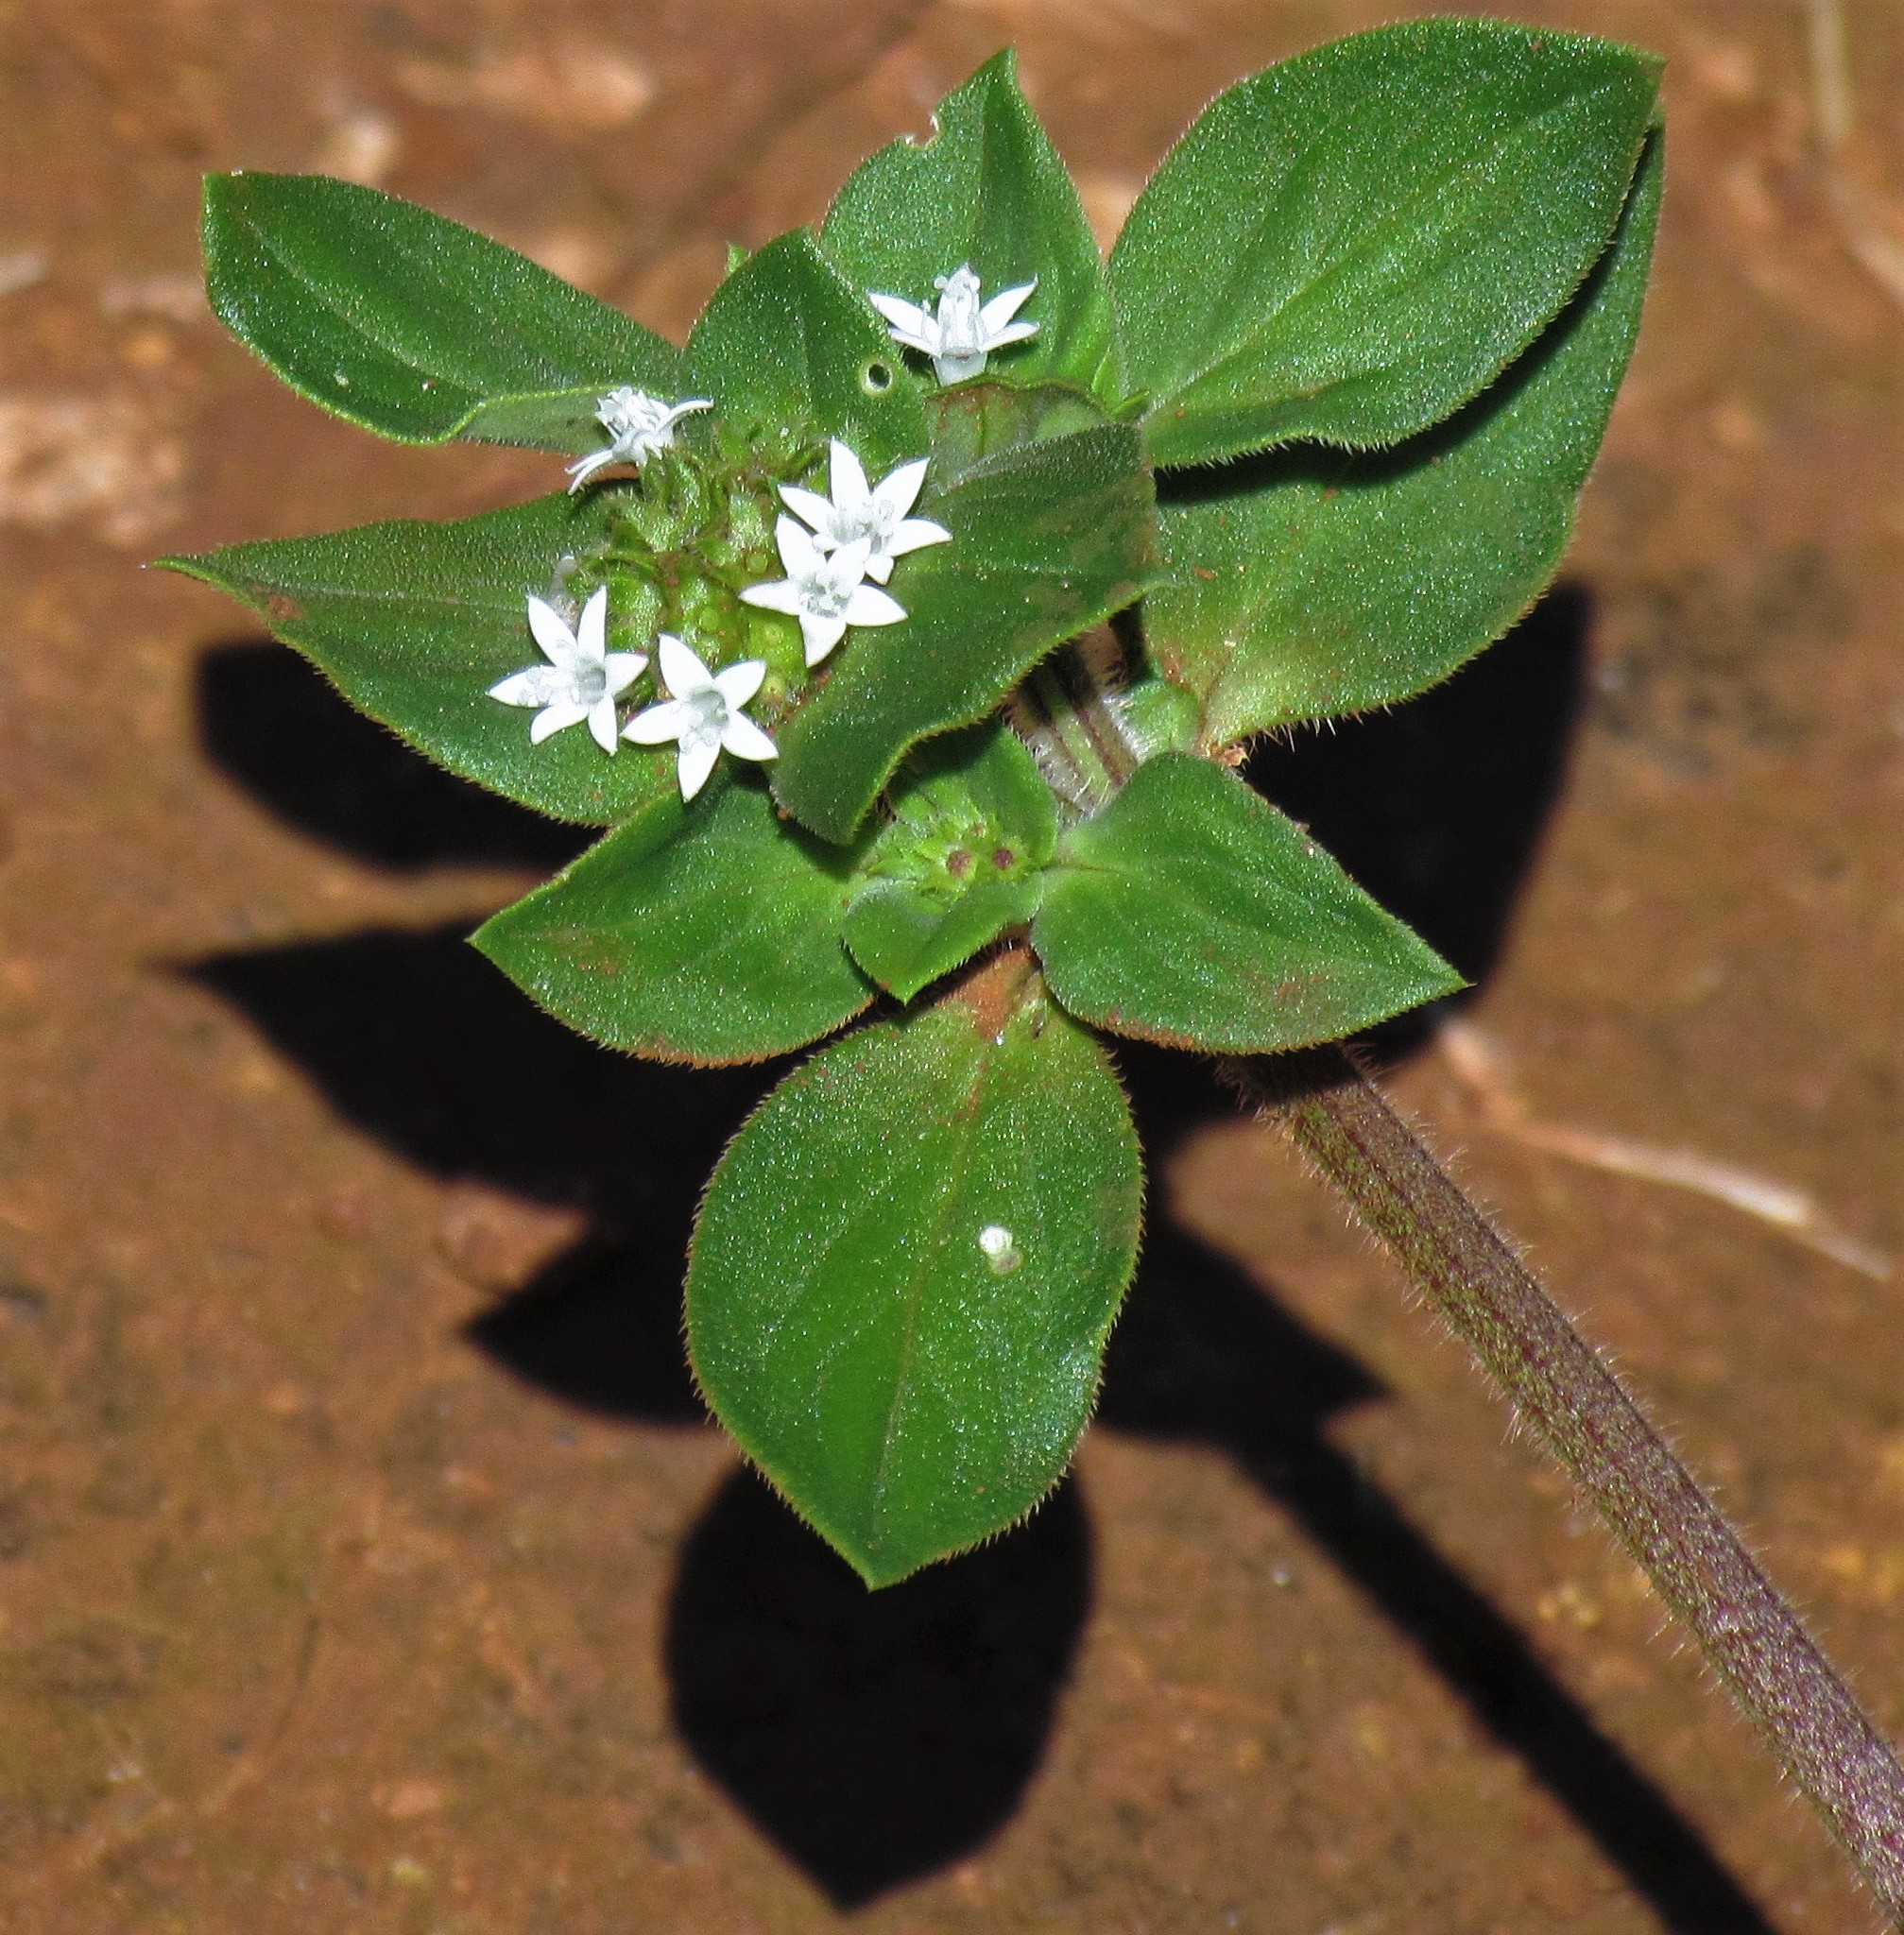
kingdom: Plantae
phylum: Tracheophyta
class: Magnoliopsida
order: Gentianales
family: Rubiaceae
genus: Richardia
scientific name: Richardia brasiliensis
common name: Tropical mexican clover
